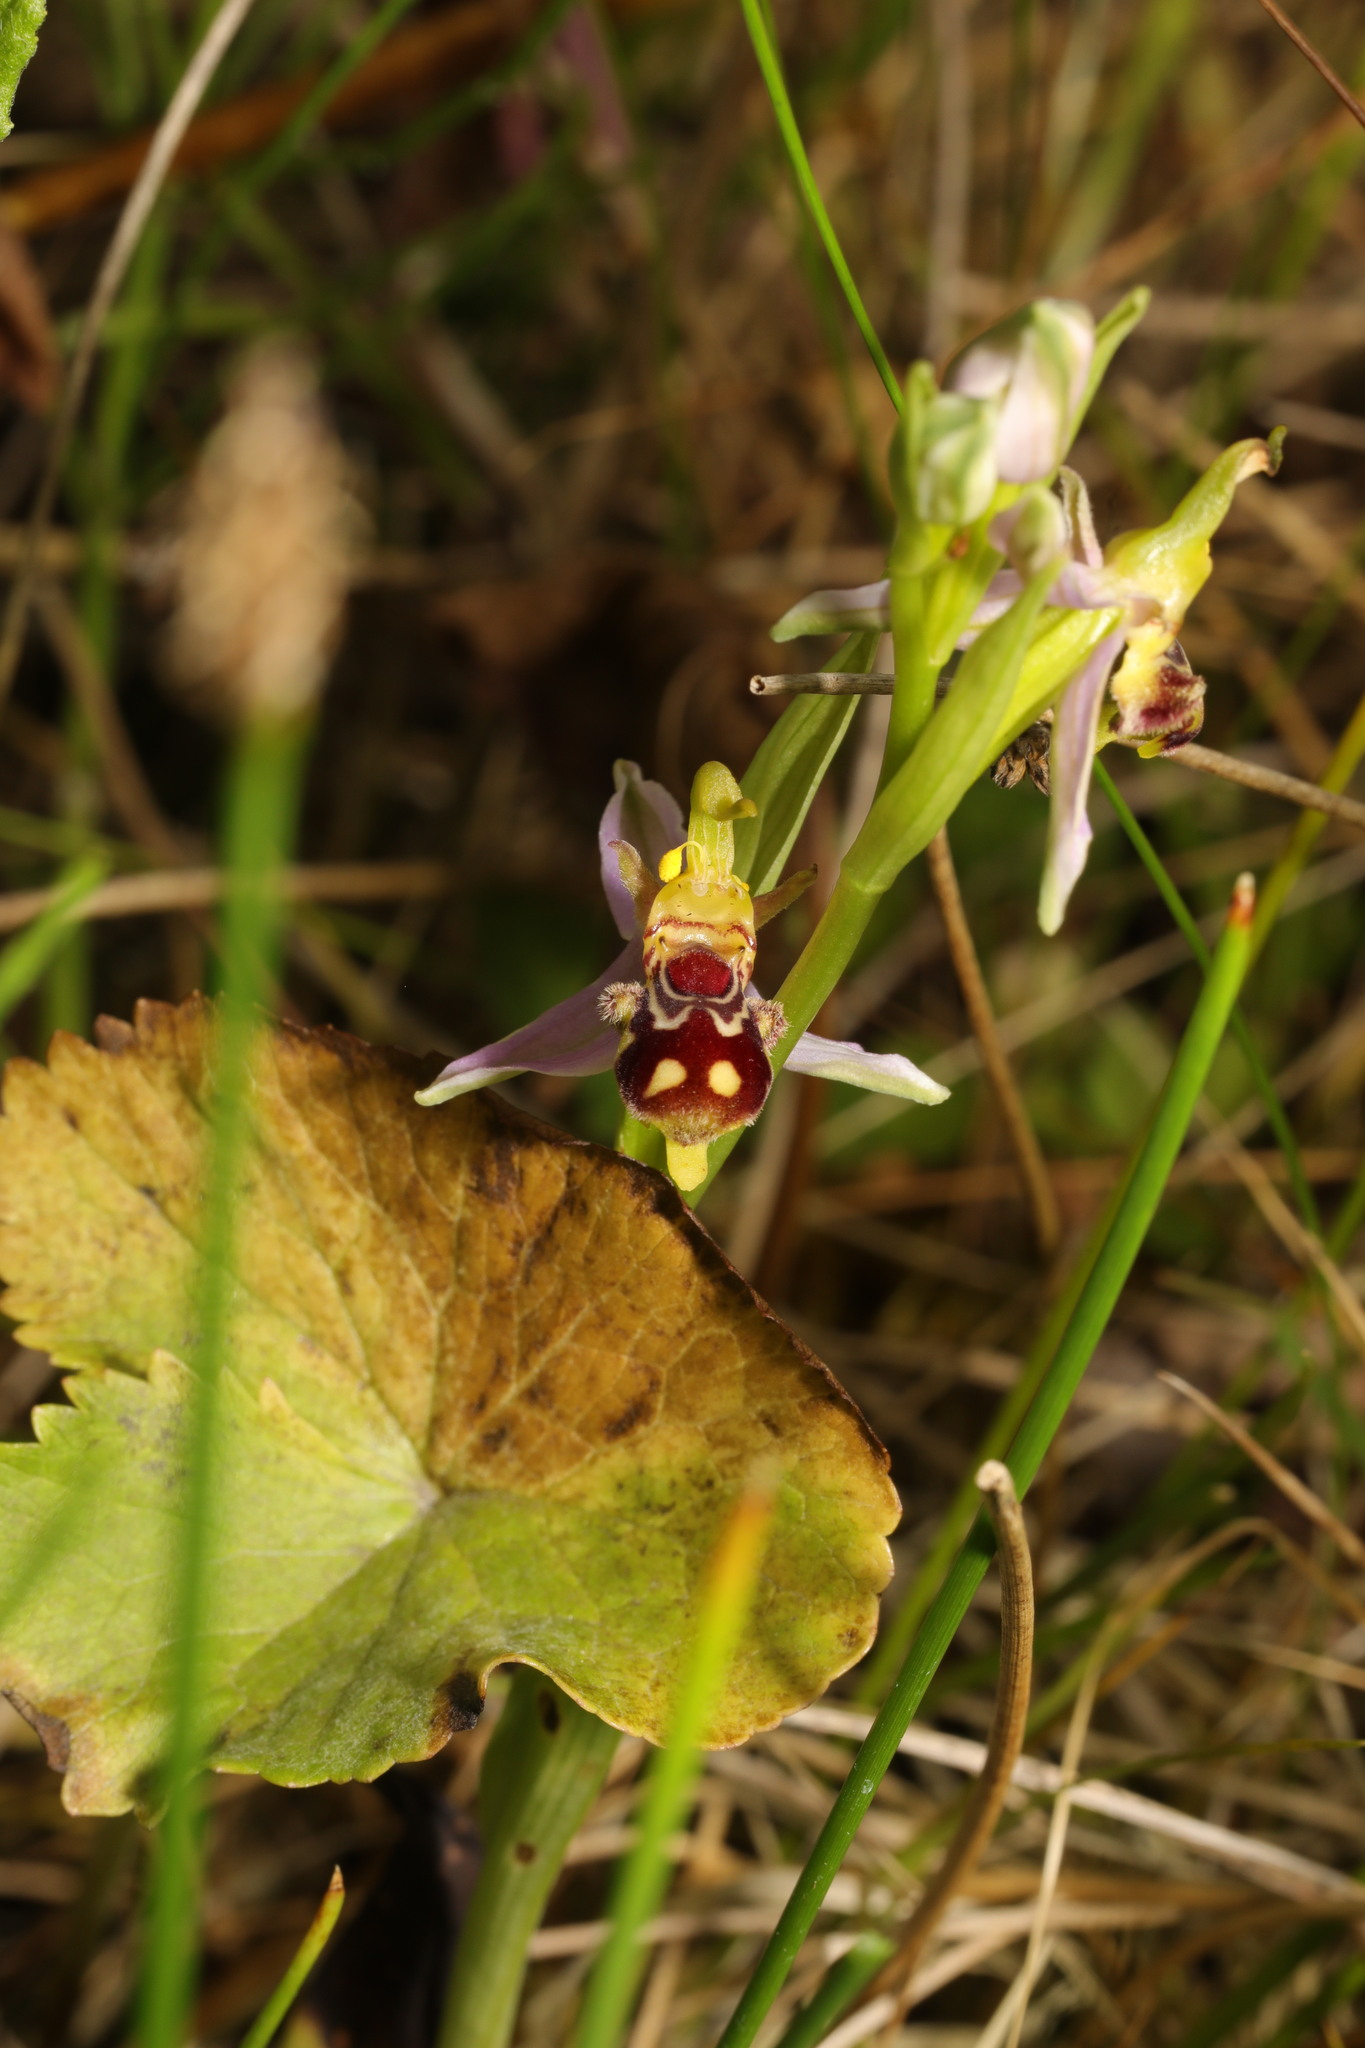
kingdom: Plantae
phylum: Tracheophyta
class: Liliopsida
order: Asparagales
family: Orchidaceae
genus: Ophrys
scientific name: Ophrys apifera
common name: Bee orchid
